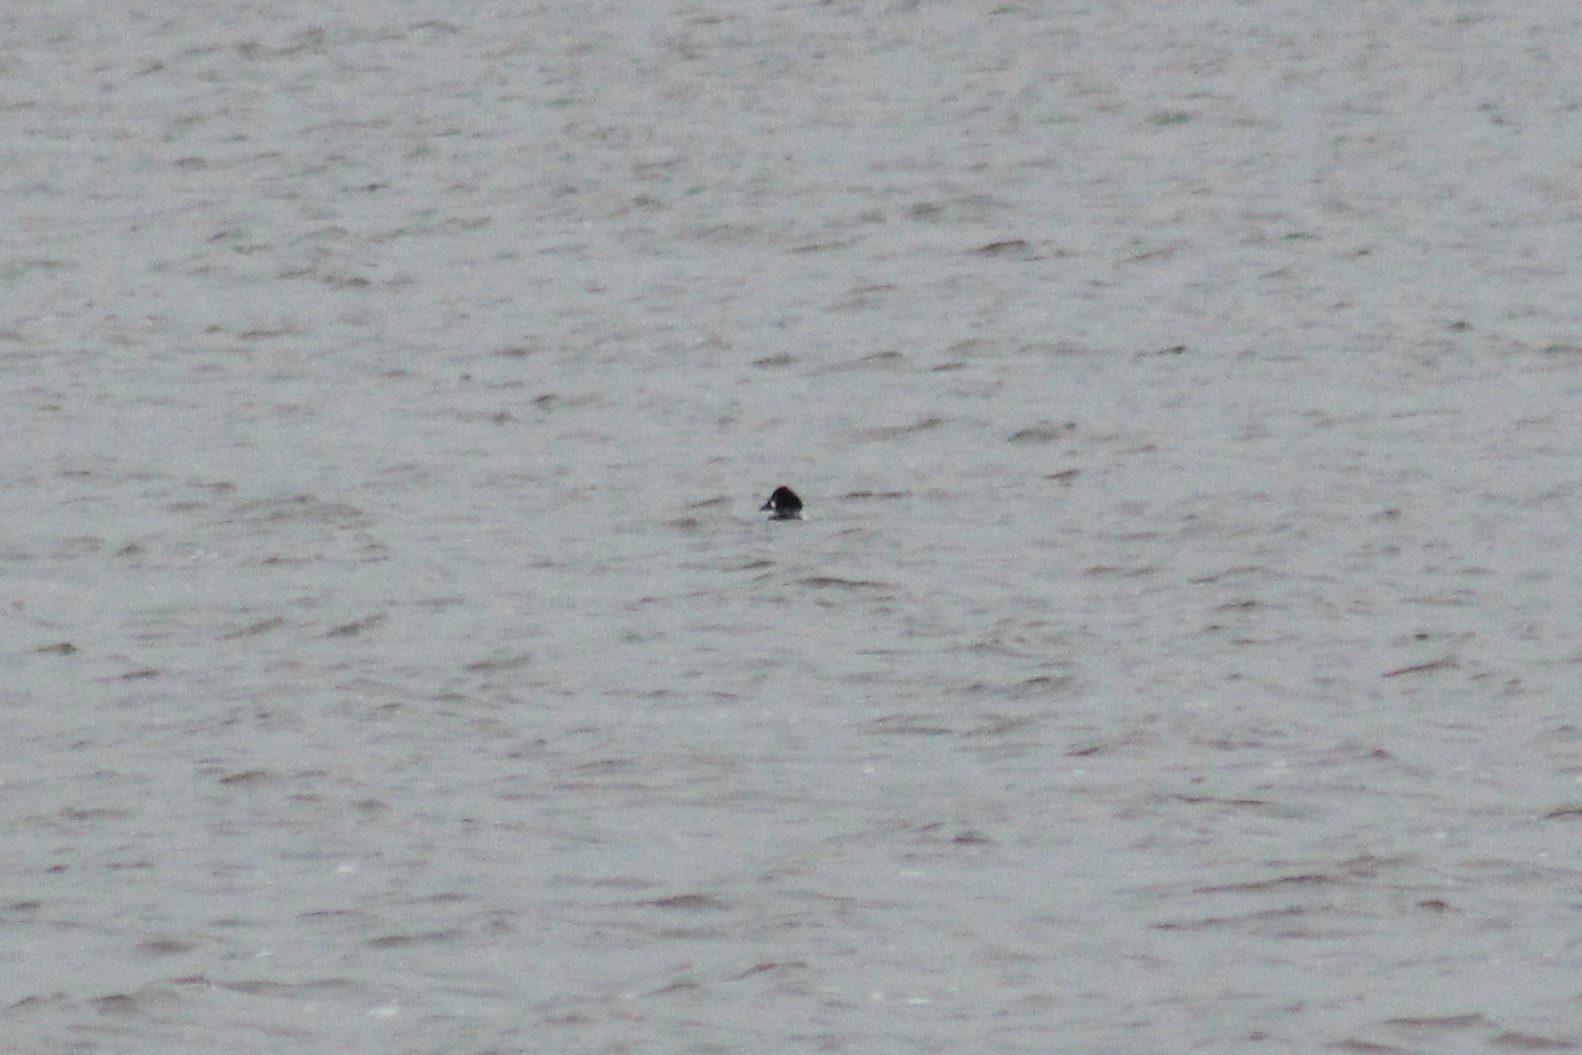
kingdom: Animalia
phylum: Chordata
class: Aves
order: Anseriformes
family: Anatidae
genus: Bucephala
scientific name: Bucephala clangula
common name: Common goldeneye
